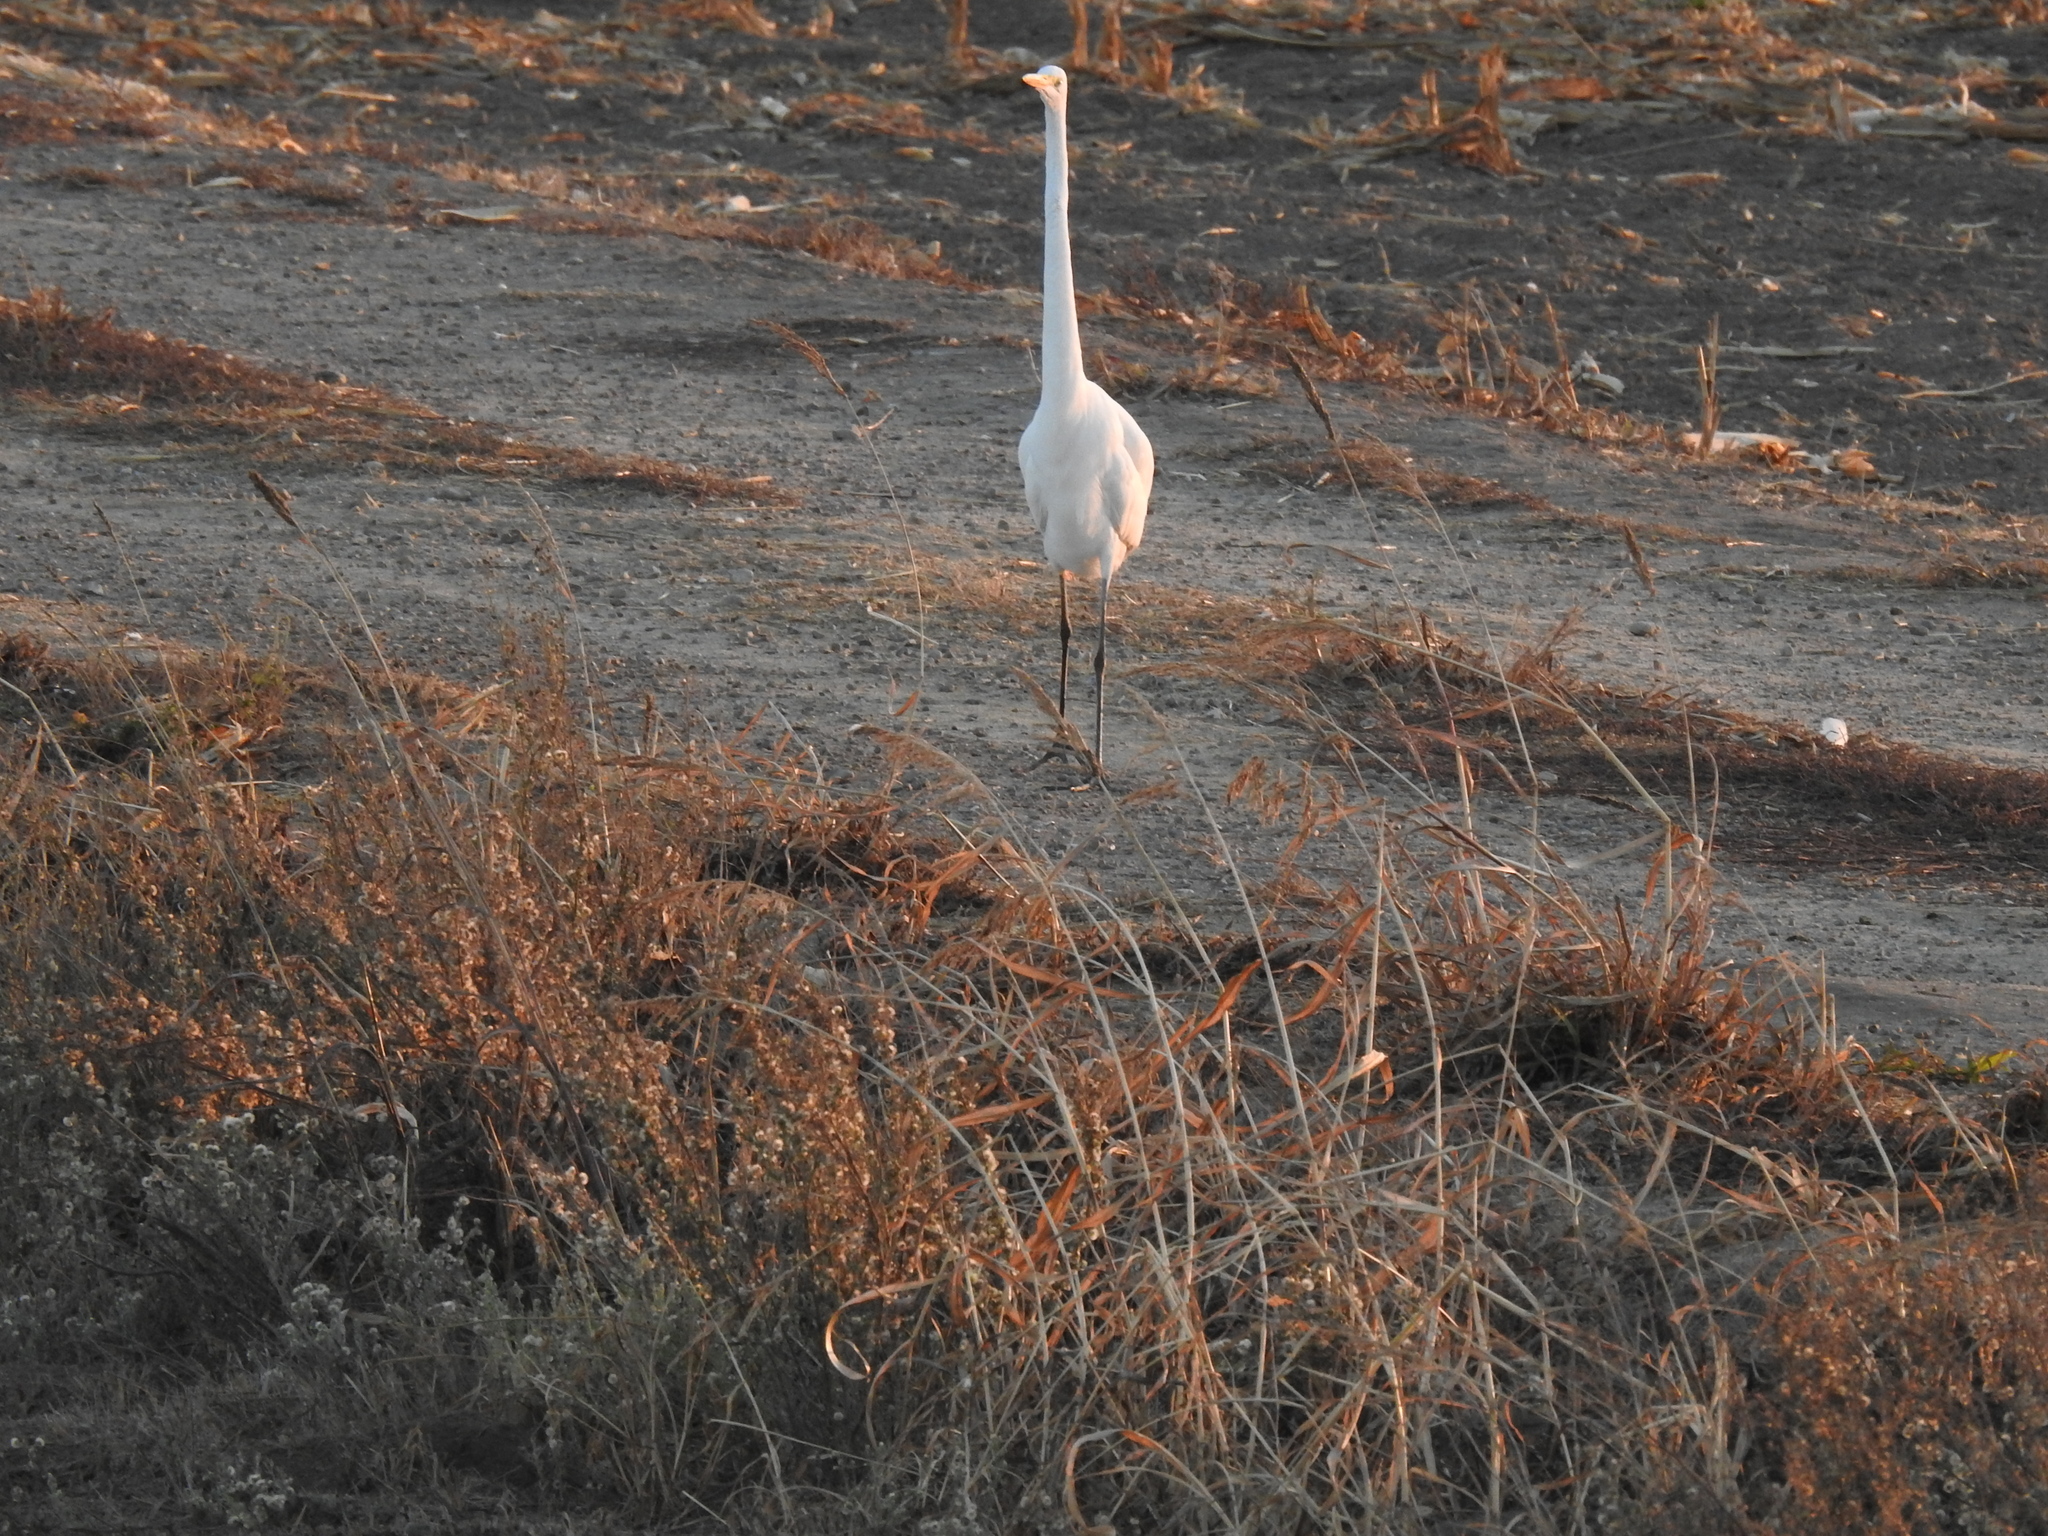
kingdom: Animalia
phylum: Chordata
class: Aves
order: Pelecaniformes
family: Ardeidae
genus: Ardea
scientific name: Ardea alba
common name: Great egret
